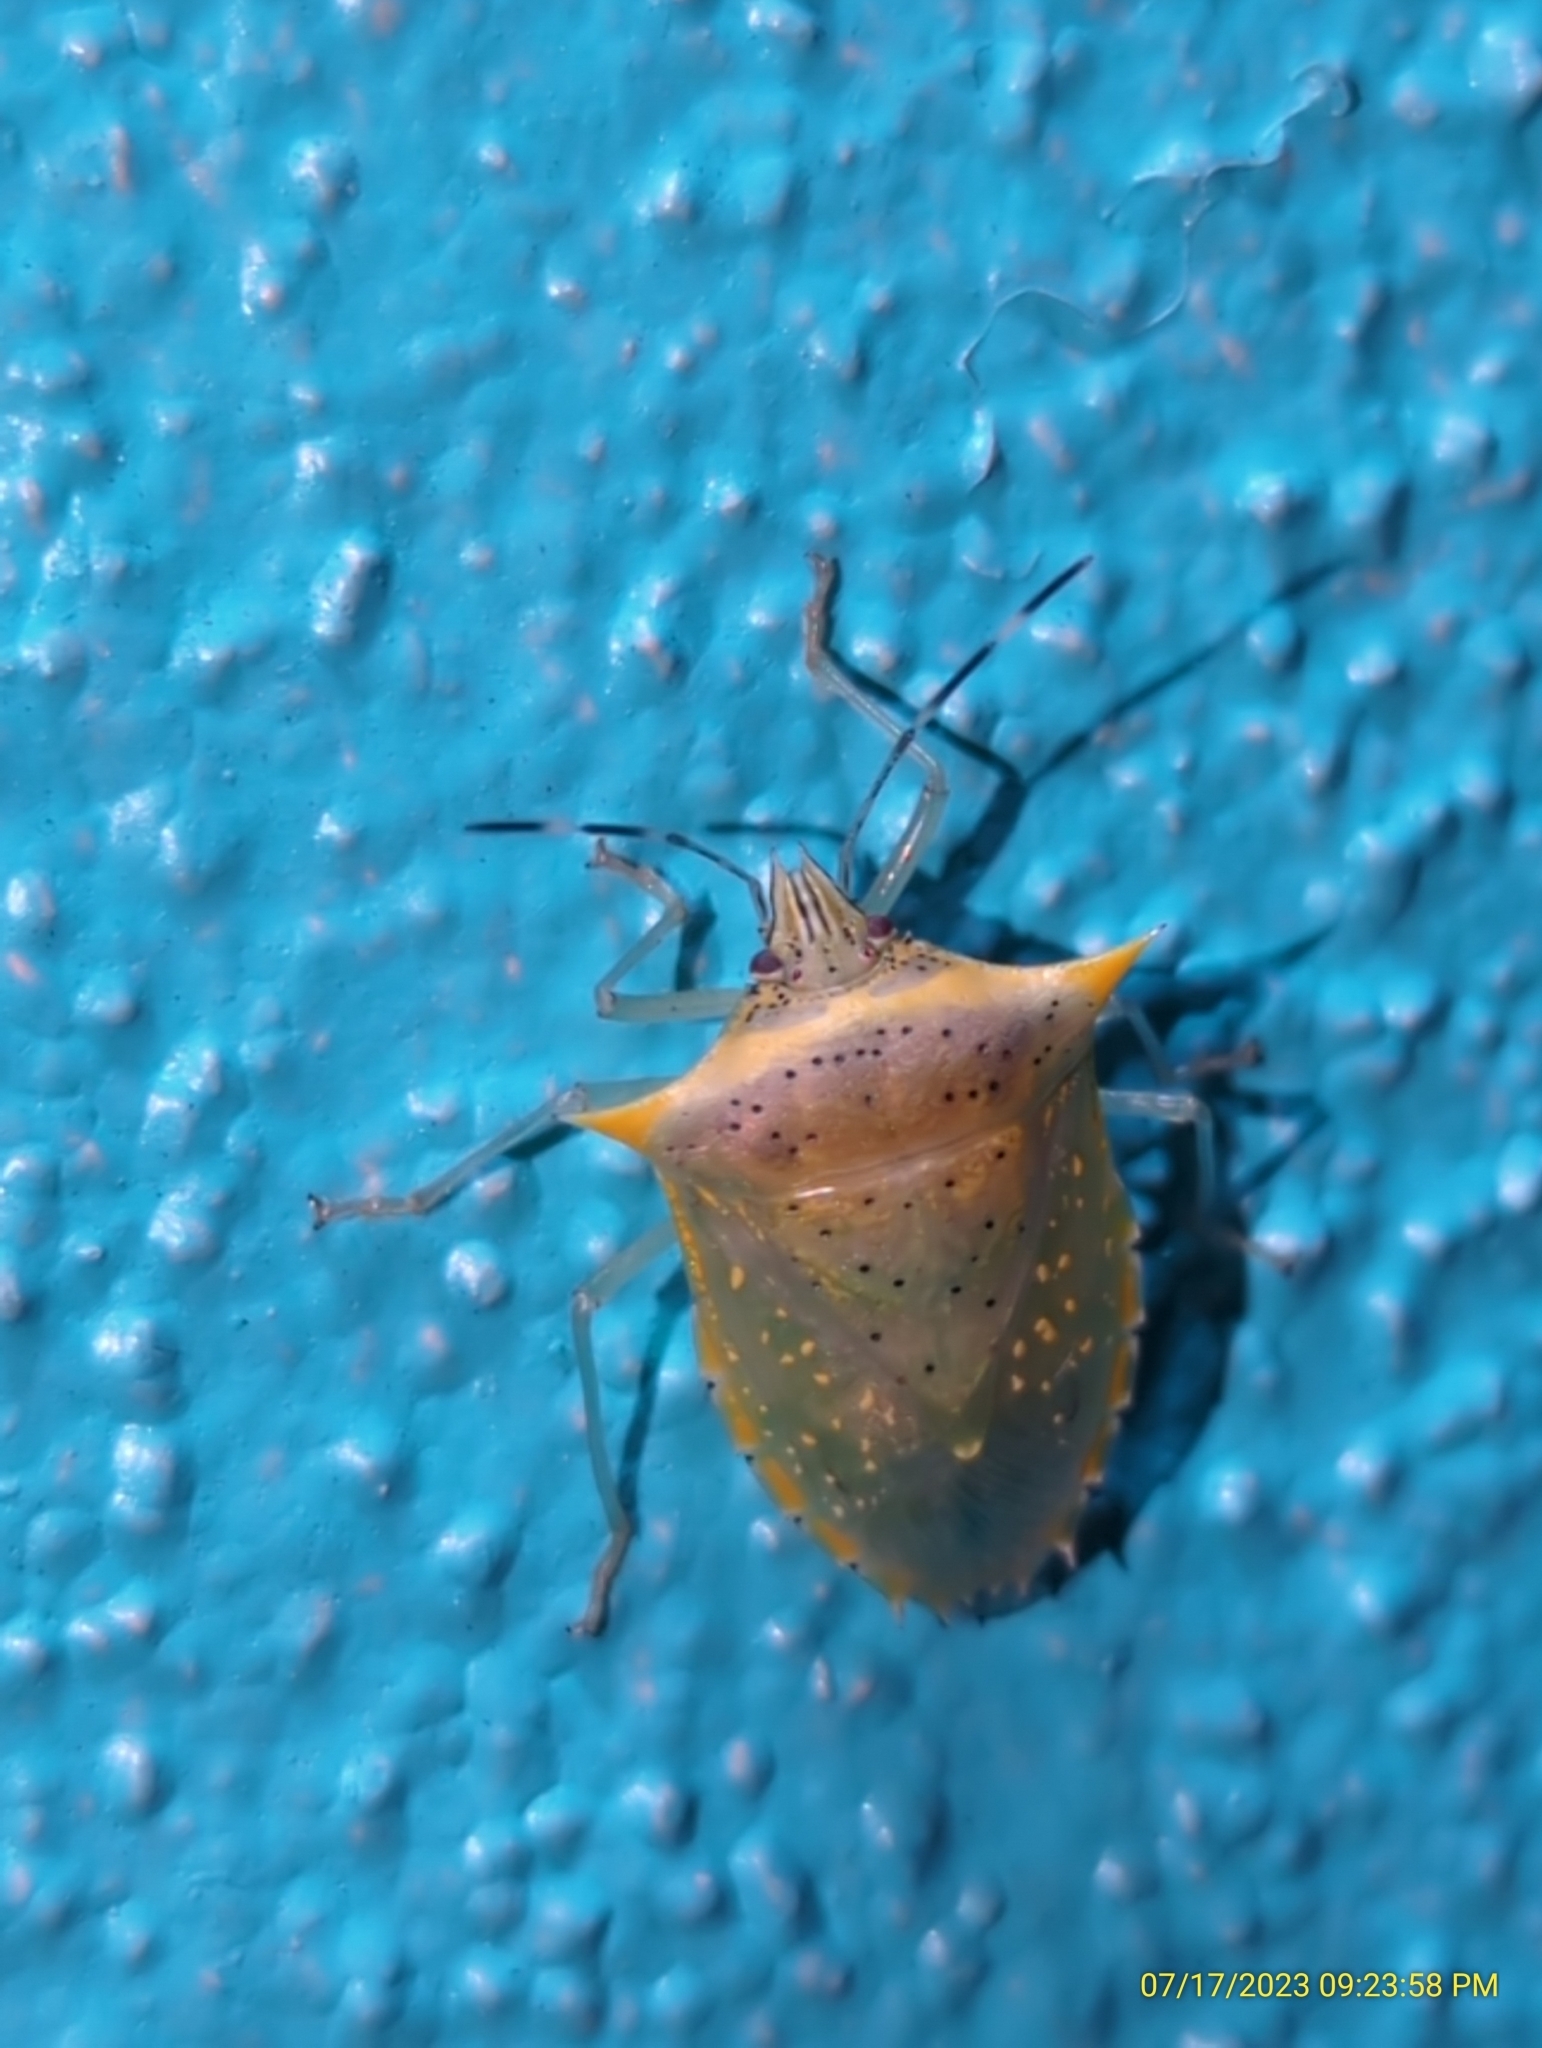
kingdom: Animalia
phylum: Arthropoda
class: Insecta
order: Hemiptera
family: Pentatomidae
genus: Arvelius
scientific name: Arvelius albopunctatus
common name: Tomato stink bug
